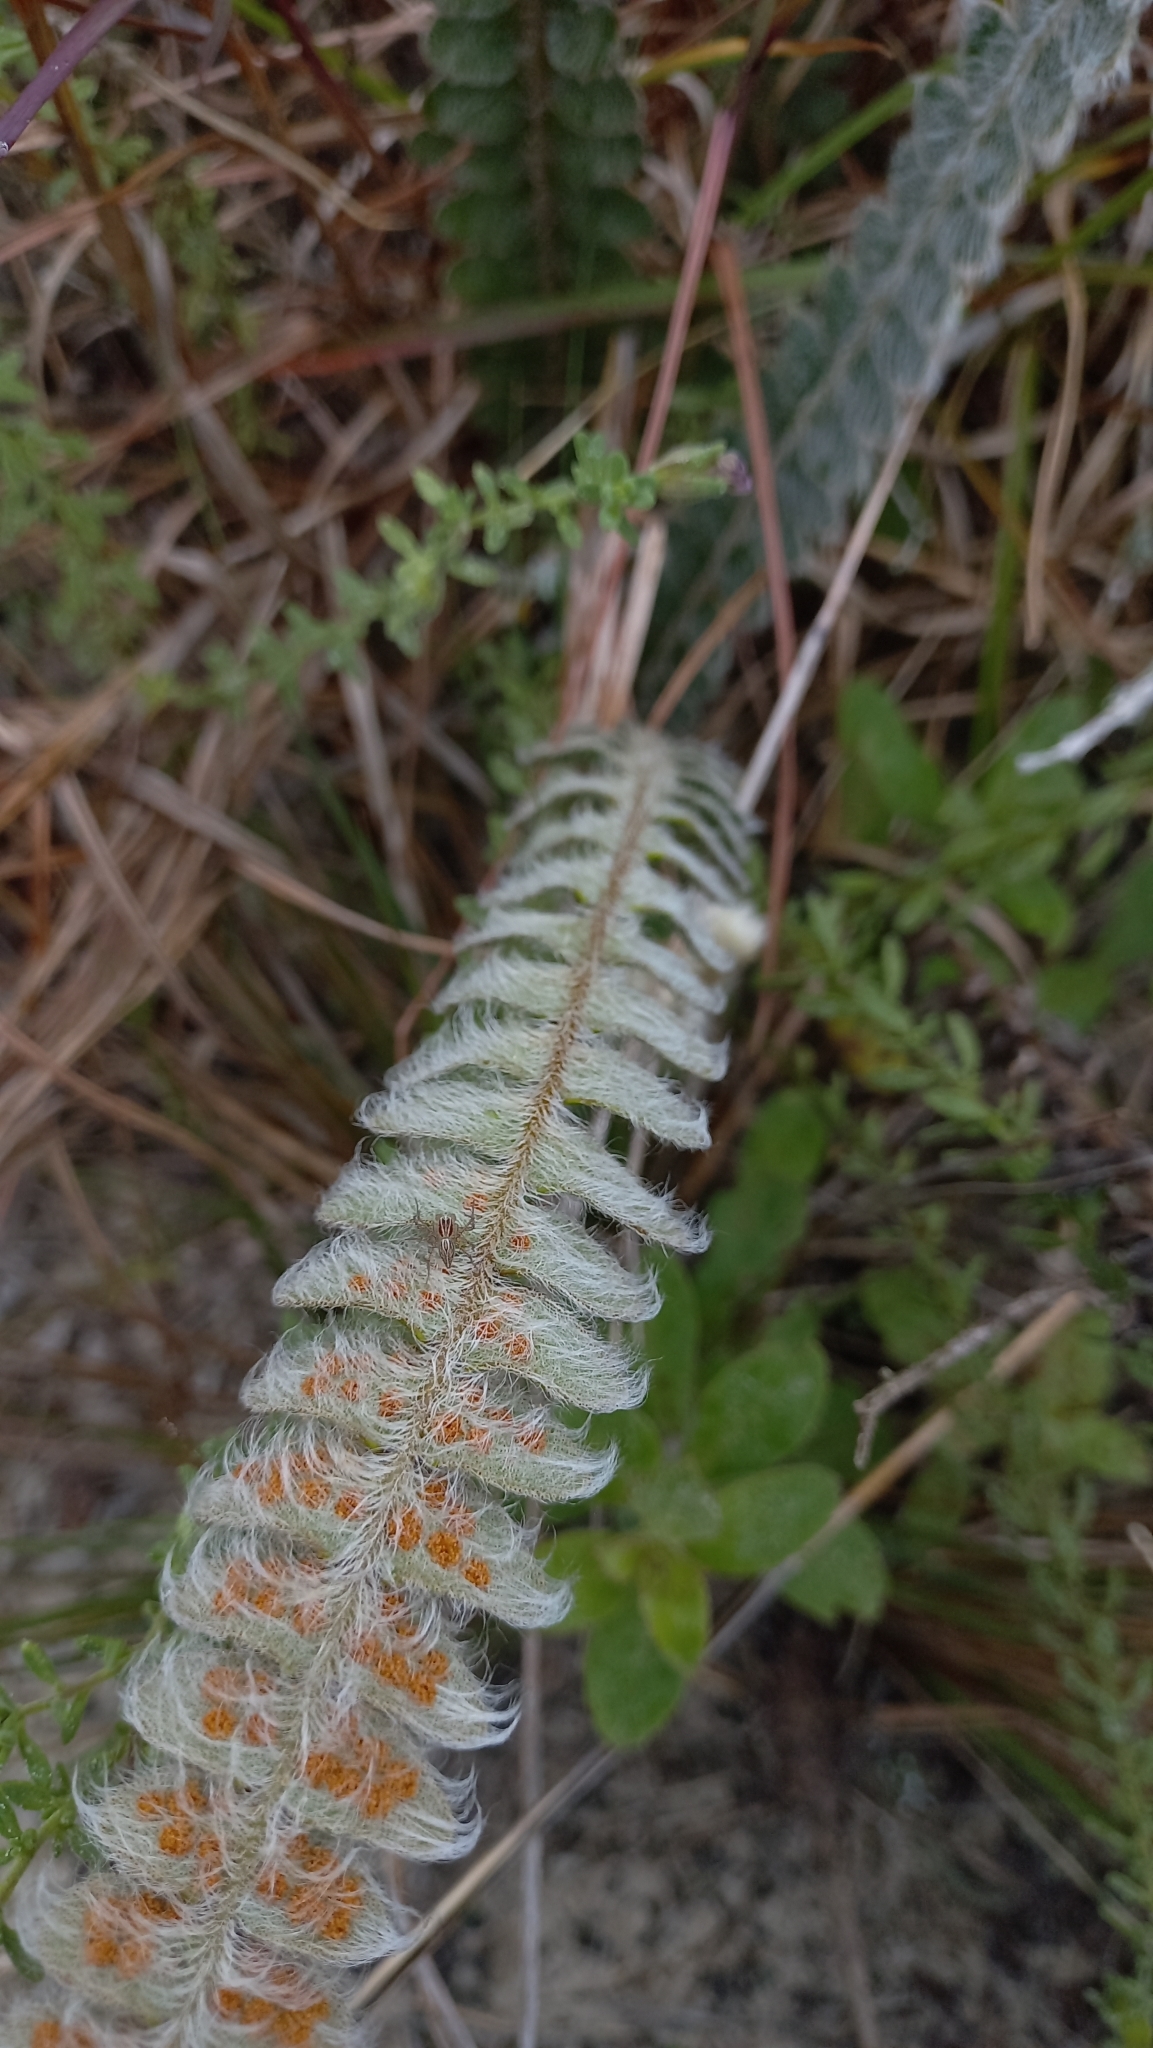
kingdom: Plantae
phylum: Tracheophyta
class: Polypodiopsida
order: Polypodiales
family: Polypodiaceae
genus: Pleopeltis
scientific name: Pleopeltis lepidopteris
